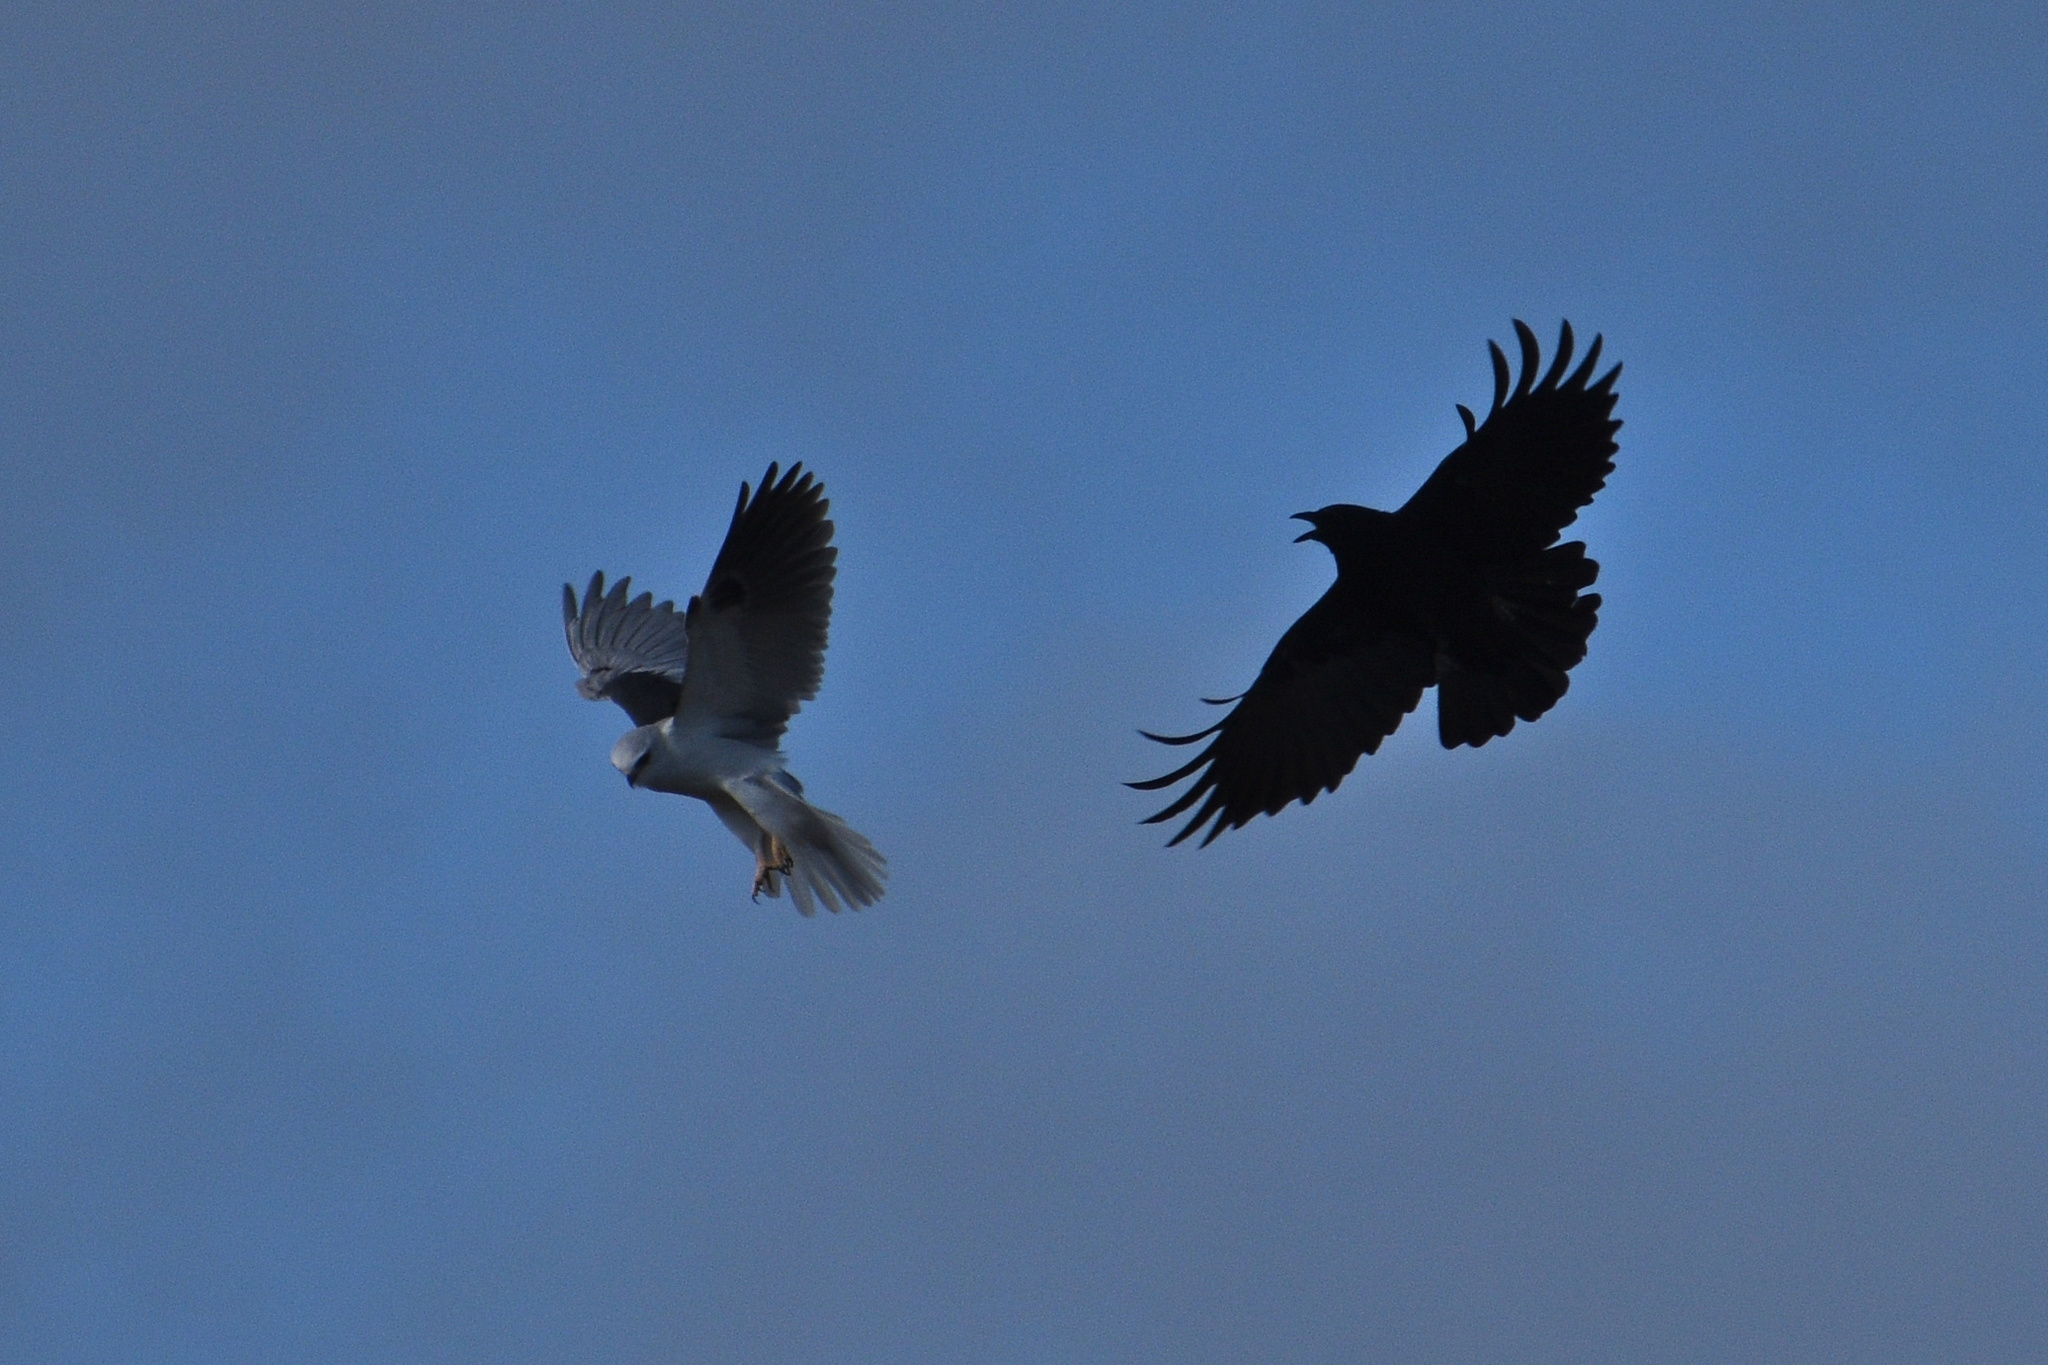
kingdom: Animalia
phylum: Chordata
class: Aves
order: Accipitriformes
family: Accipitridae
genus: Elanus
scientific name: Elanus leucurus
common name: White-tailed kite
